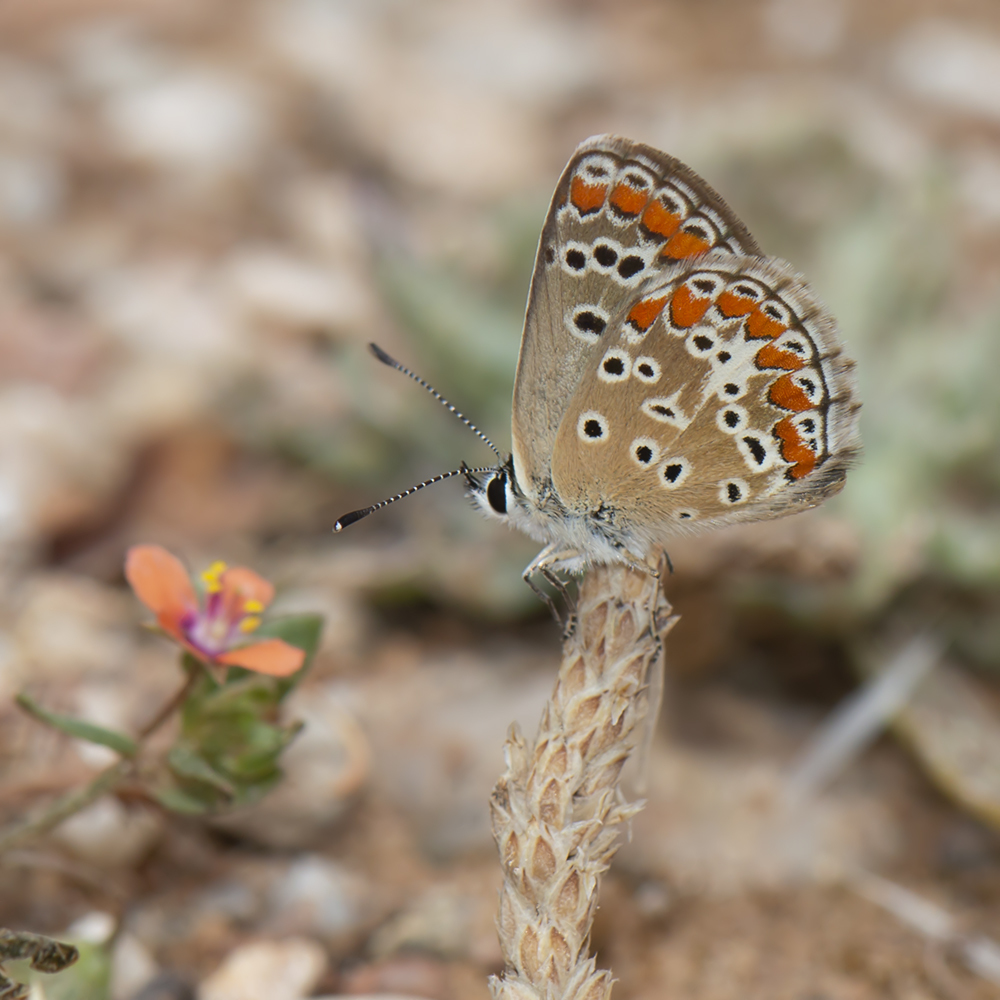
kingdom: Animalia
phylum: Arthropoda
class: Insecta
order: Lepidoptera
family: Lycaenidae
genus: Aricia
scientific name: Aricia agestis
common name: Brown argus
